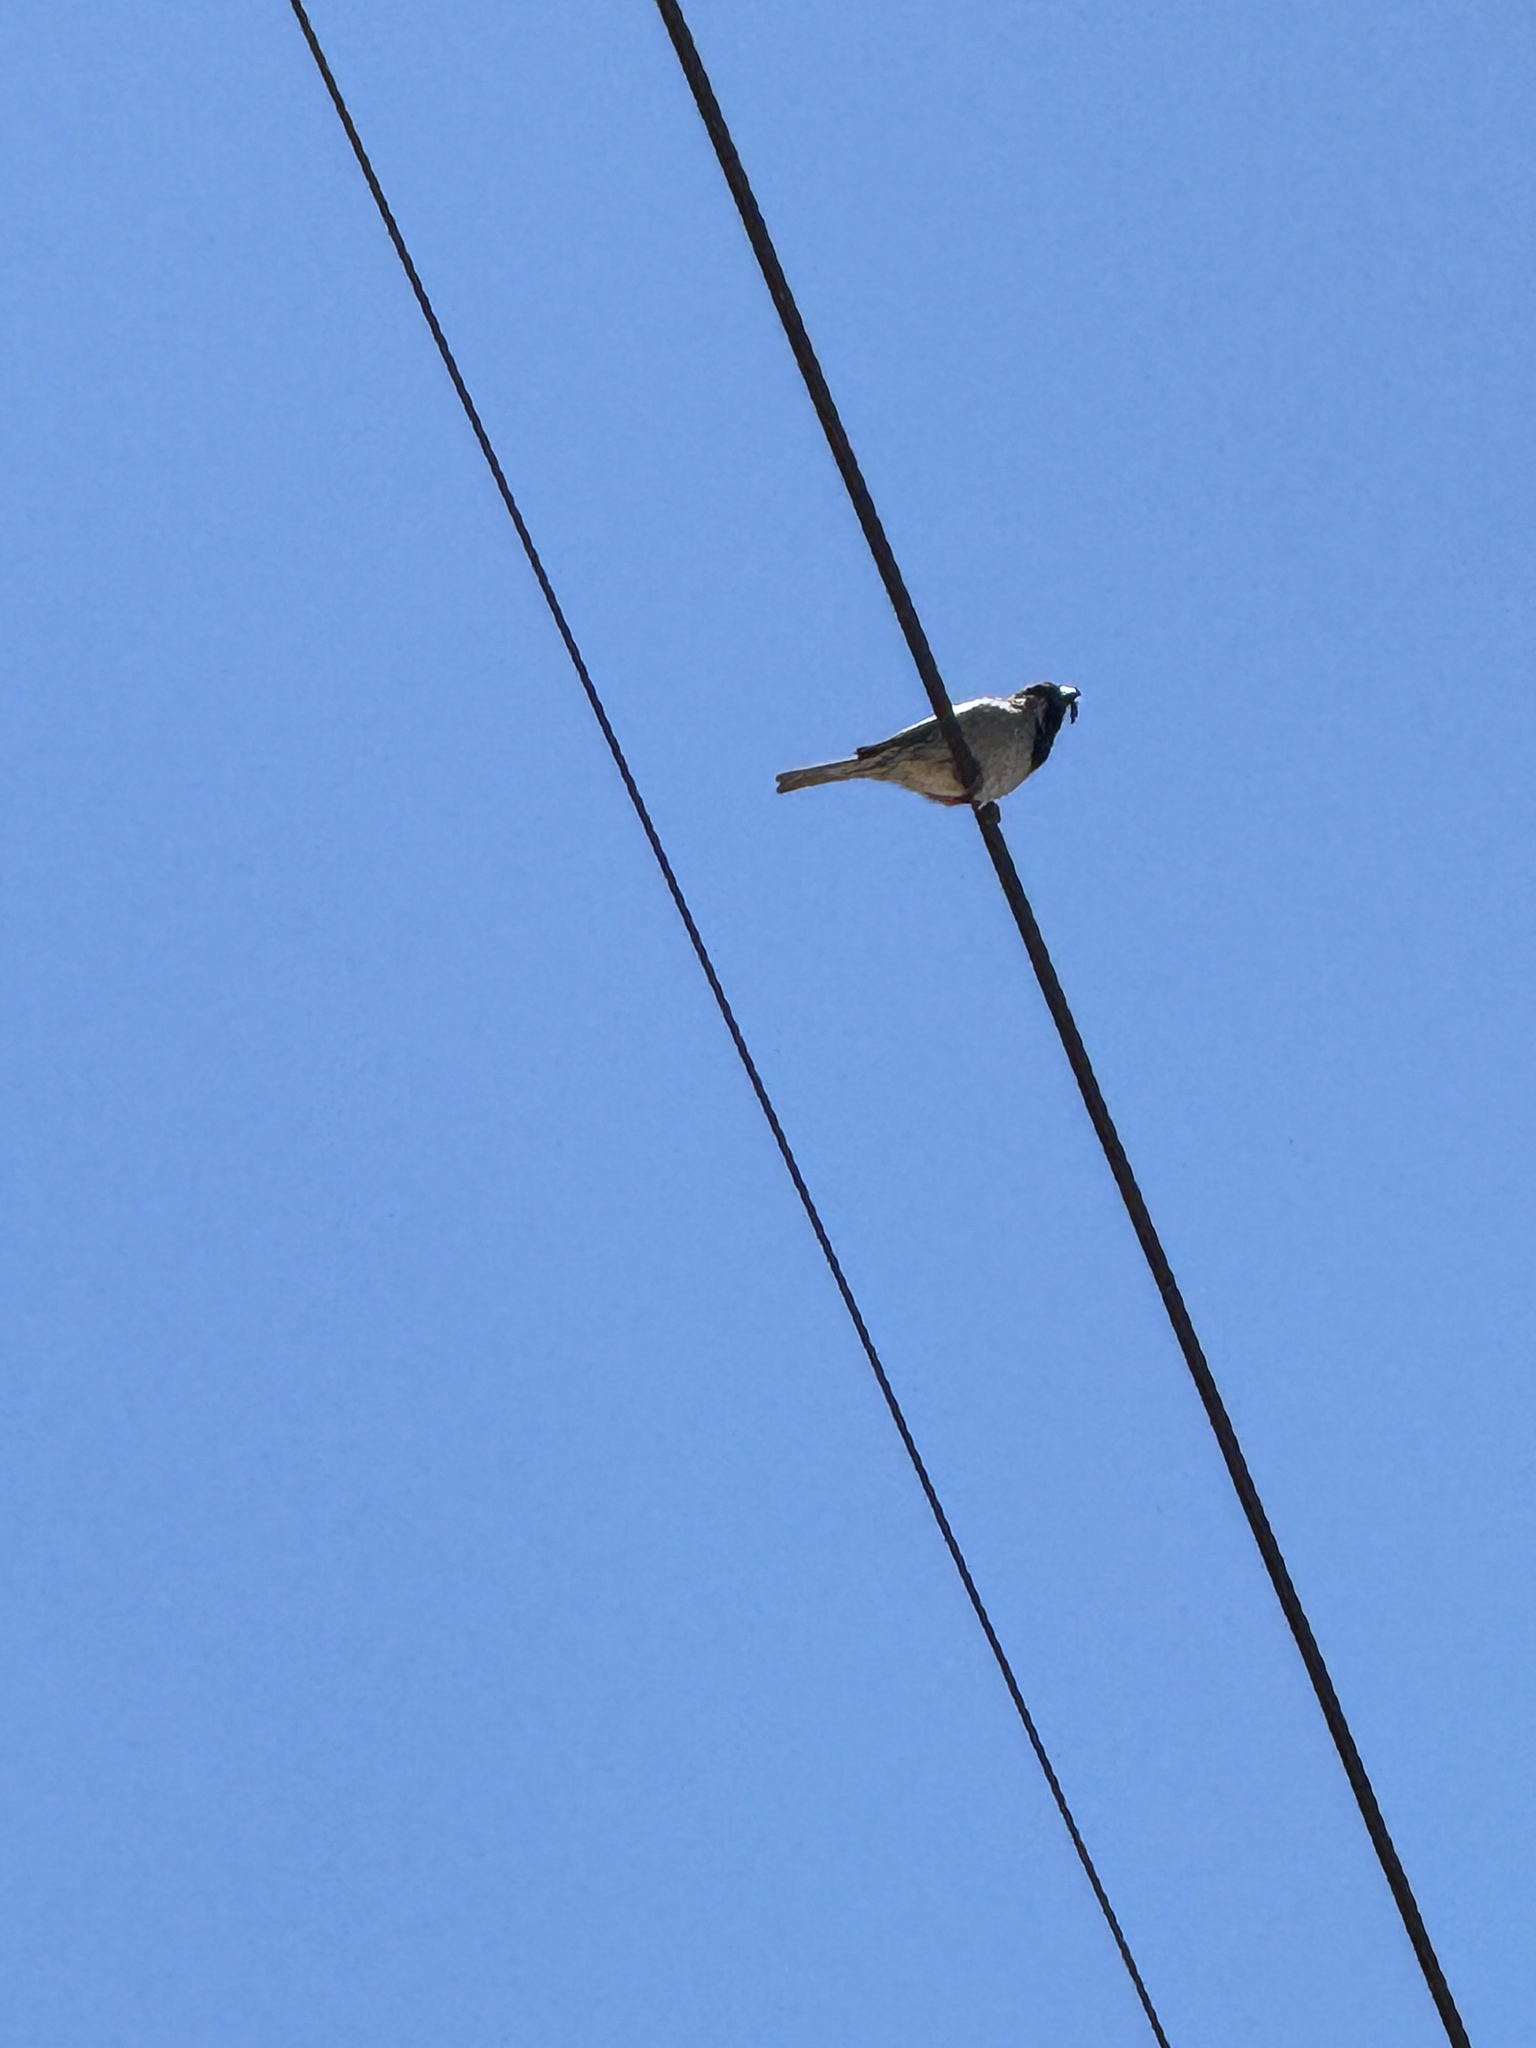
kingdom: Animalia
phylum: Chordata
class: Aves
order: Passeriformes
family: Passeridae
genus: Passer
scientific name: Passer domesticus
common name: House sparrow
